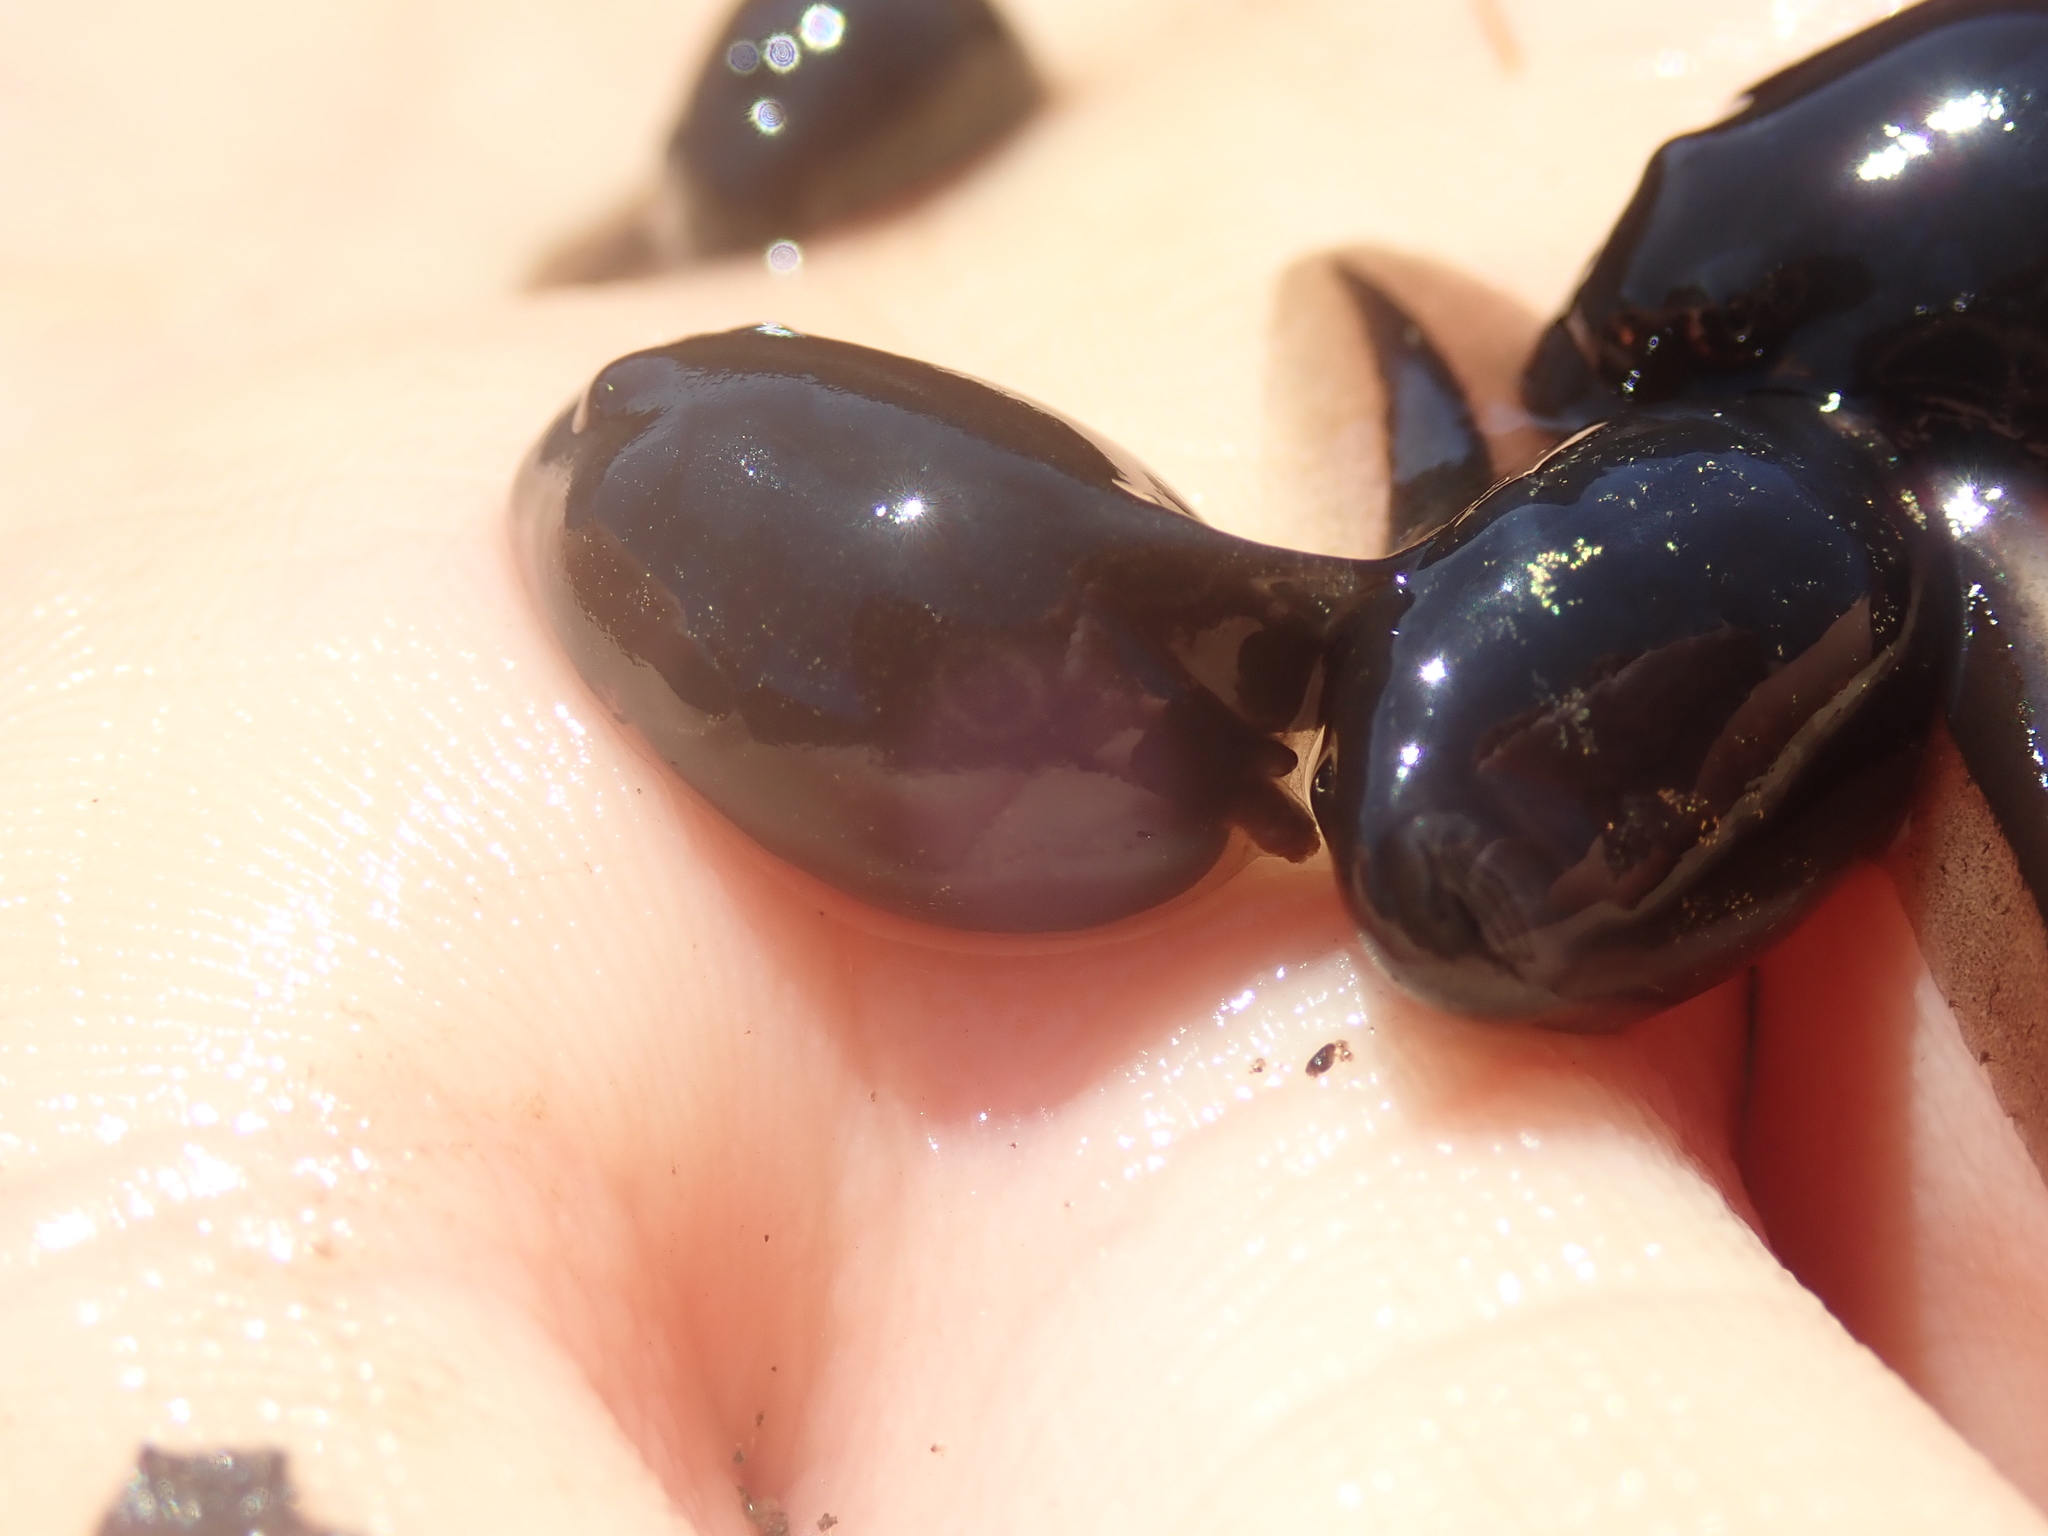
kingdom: Animalia
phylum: Chordata
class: Amphibia
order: Anura
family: Bufonidae
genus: Anaxyrus
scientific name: Anaxyrus boreas
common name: Western toad
